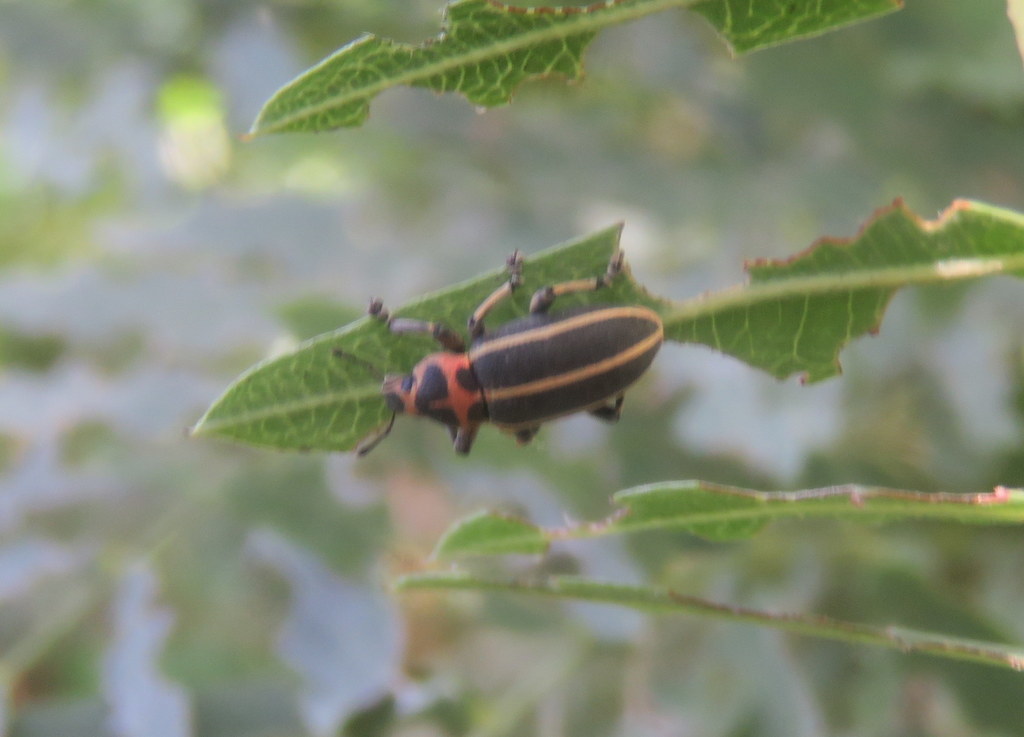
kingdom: Animalia
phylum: Arthropoda
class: Insecta
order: Coleoptera
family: Curculionidae
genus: Eudiagogus
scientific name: Eudiagogus episcopalis
